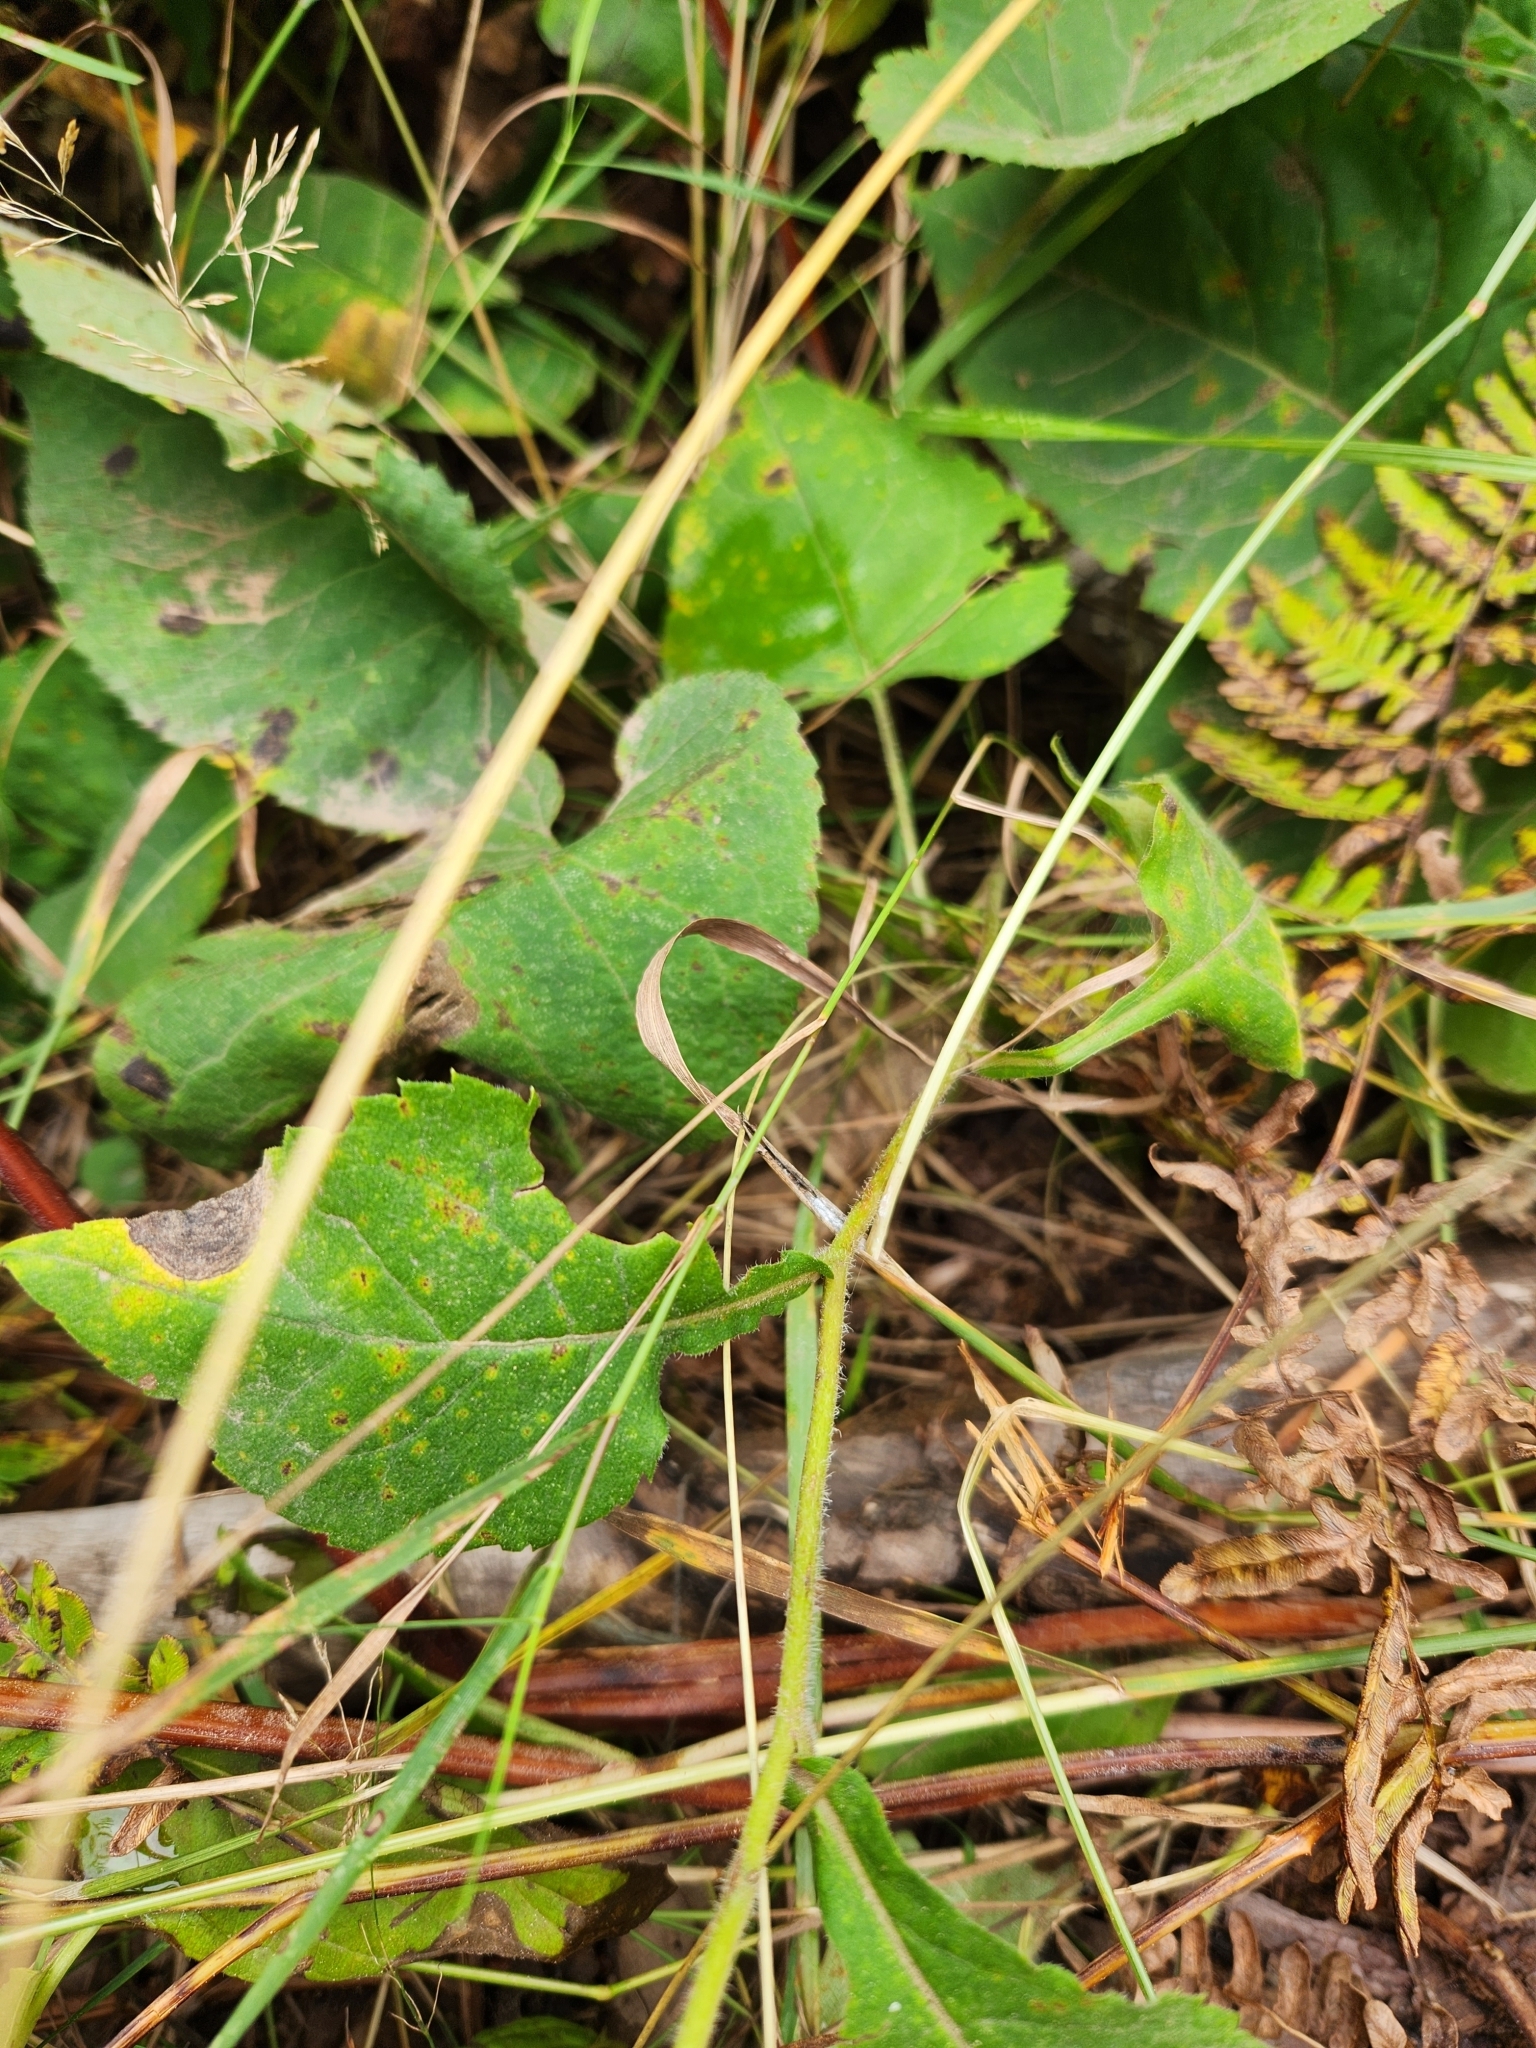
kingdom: Plantae
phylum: Tracheophyta
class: Magnoliopsida
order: Asterales
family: Asteraceae
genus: Eurybia
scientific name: Eurybia macrophylla
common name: Big-leaved aster
